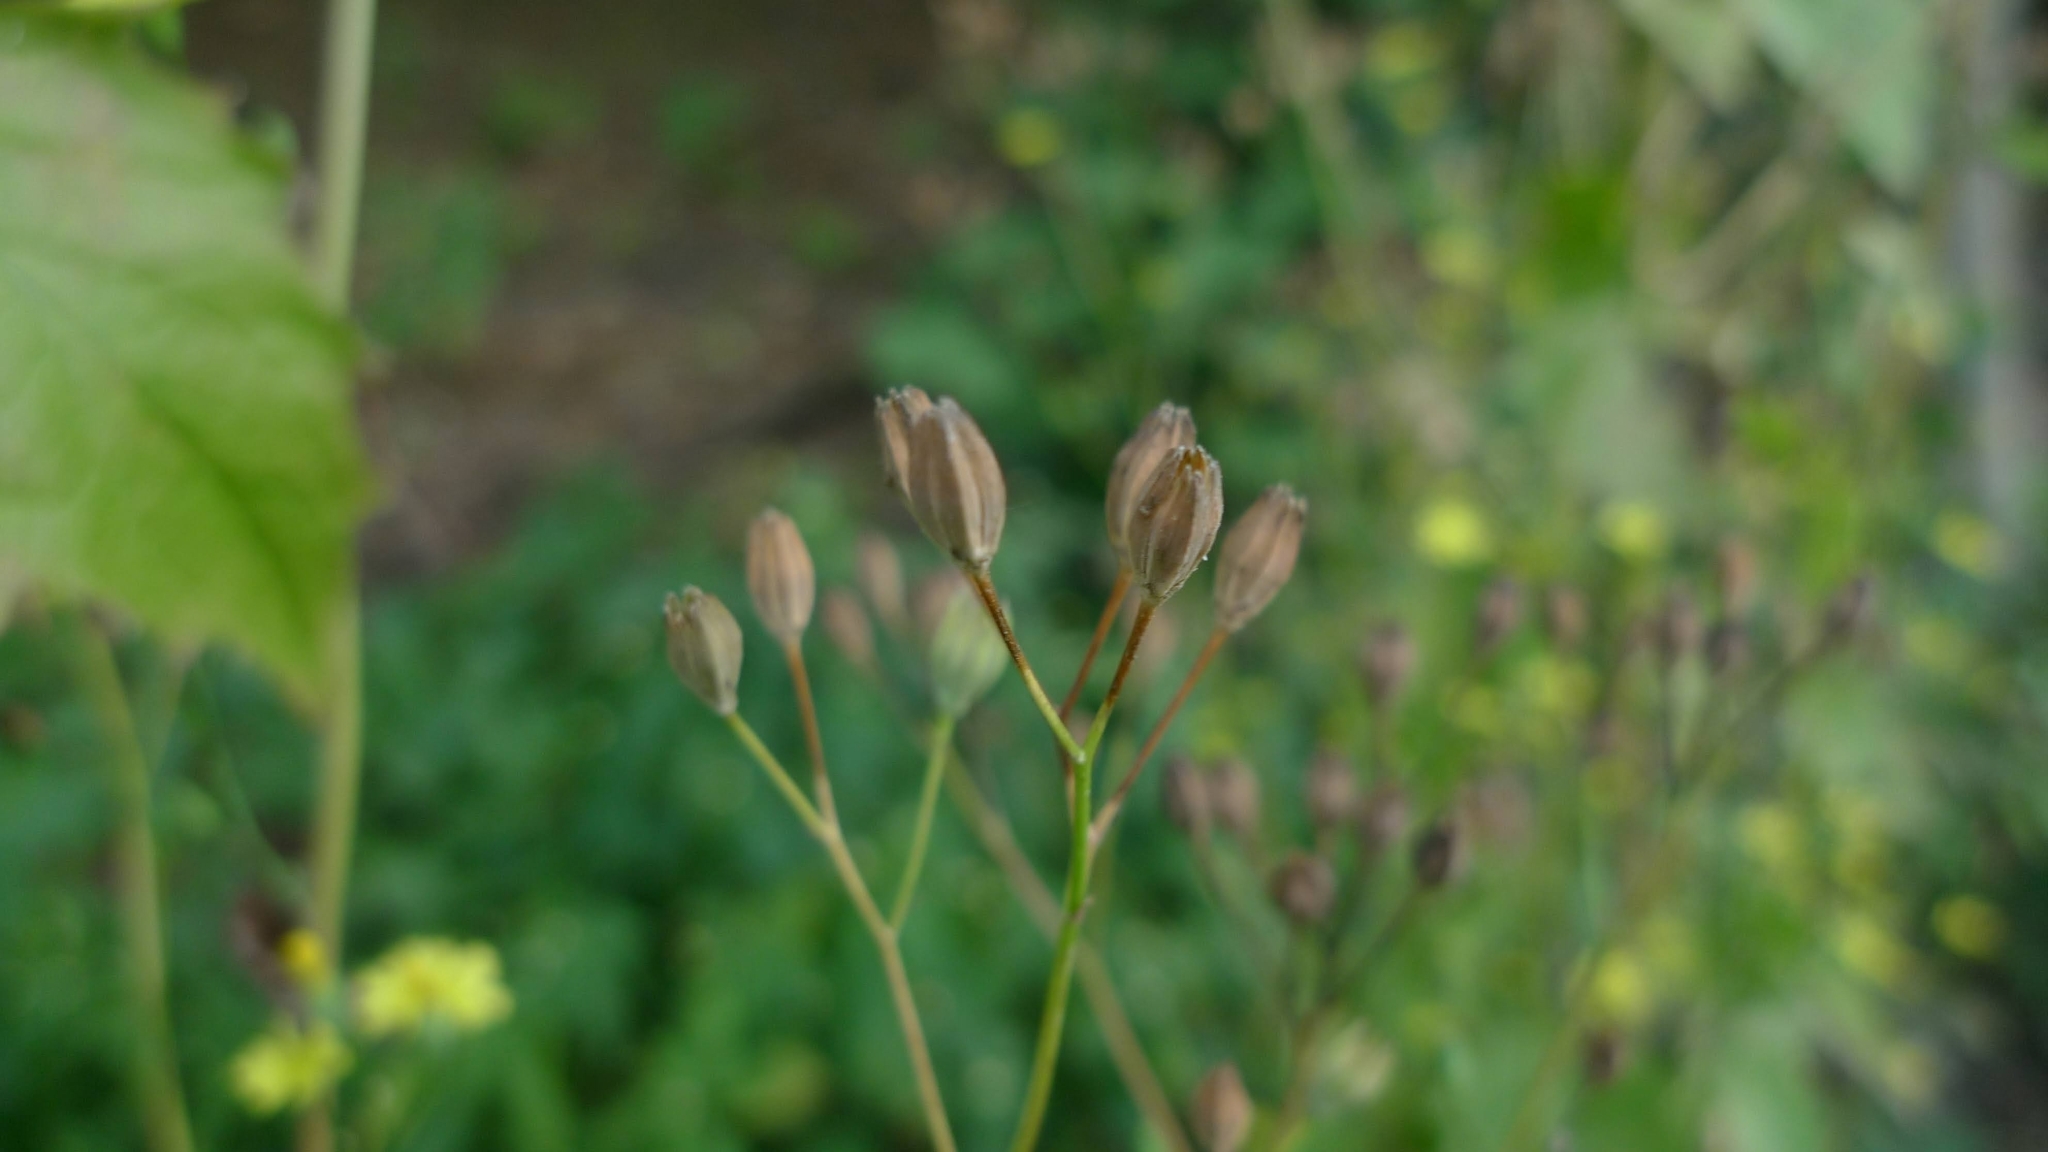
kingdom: Plantae
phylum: Tracheophyta
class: Magnoliopsida
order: Asterales
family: Asteraceae
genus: Lapsana
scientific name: Lapsana communis
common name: Nipplewort
